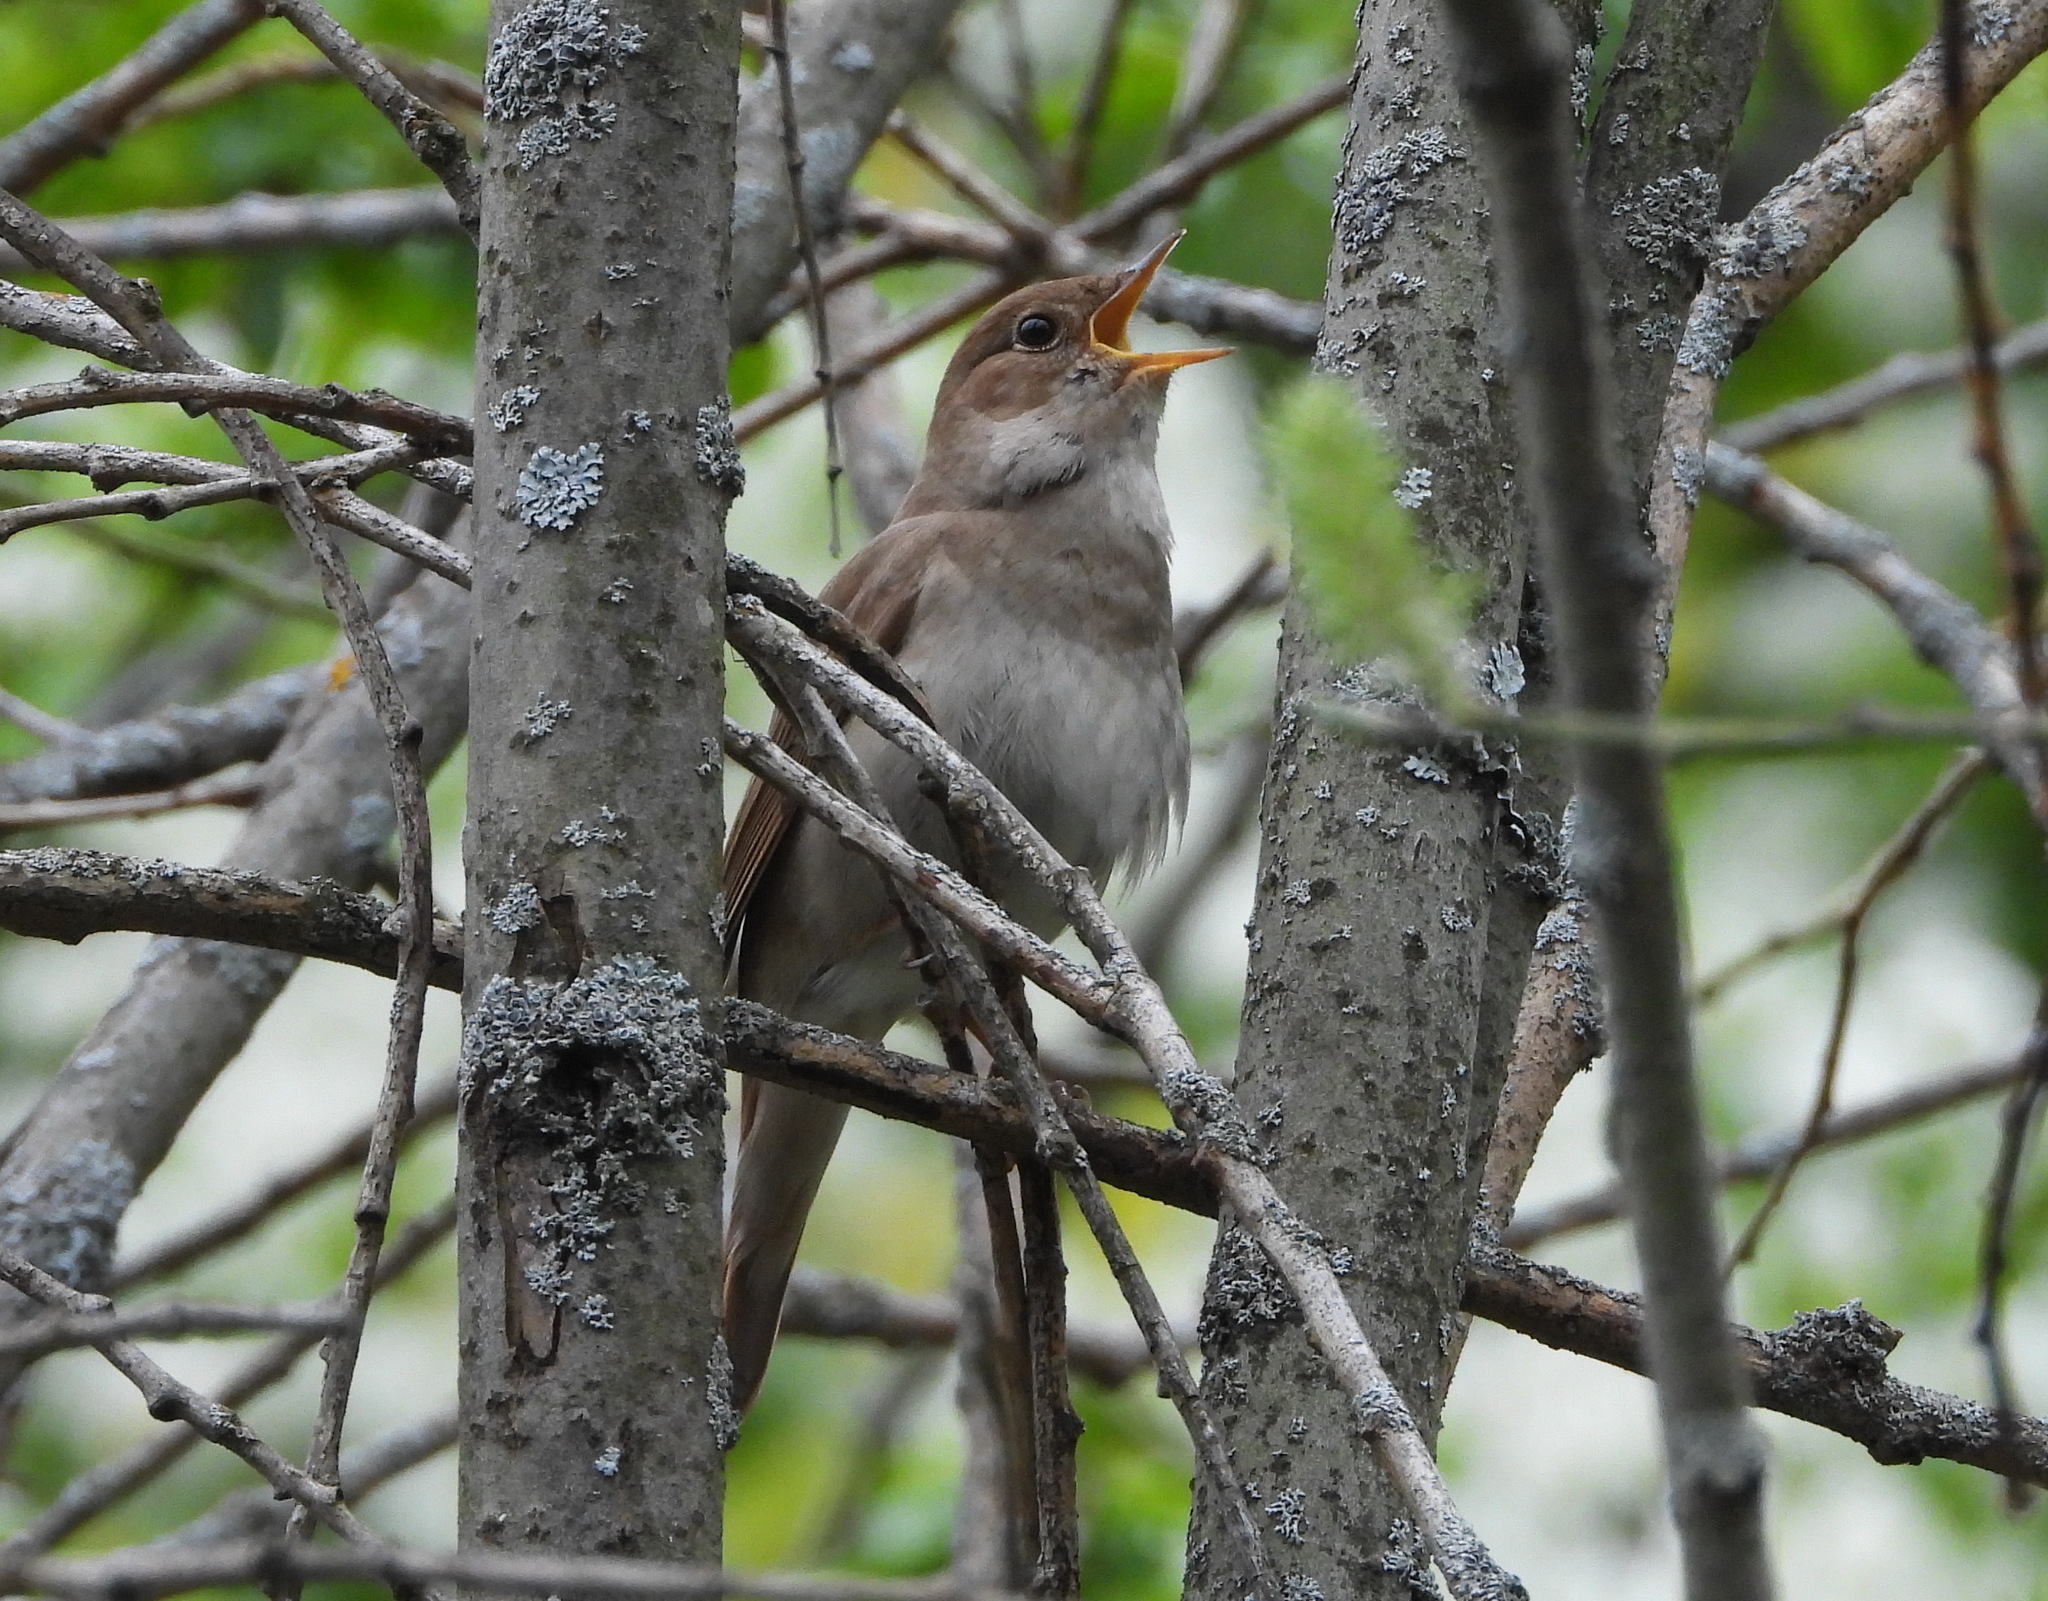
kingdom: Animalia
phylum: Chordata
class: Aves
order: Passeriformes
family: Muscicapidae
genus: Luscinia
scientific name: Luscinia luscinia
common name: Thrush nightingale
